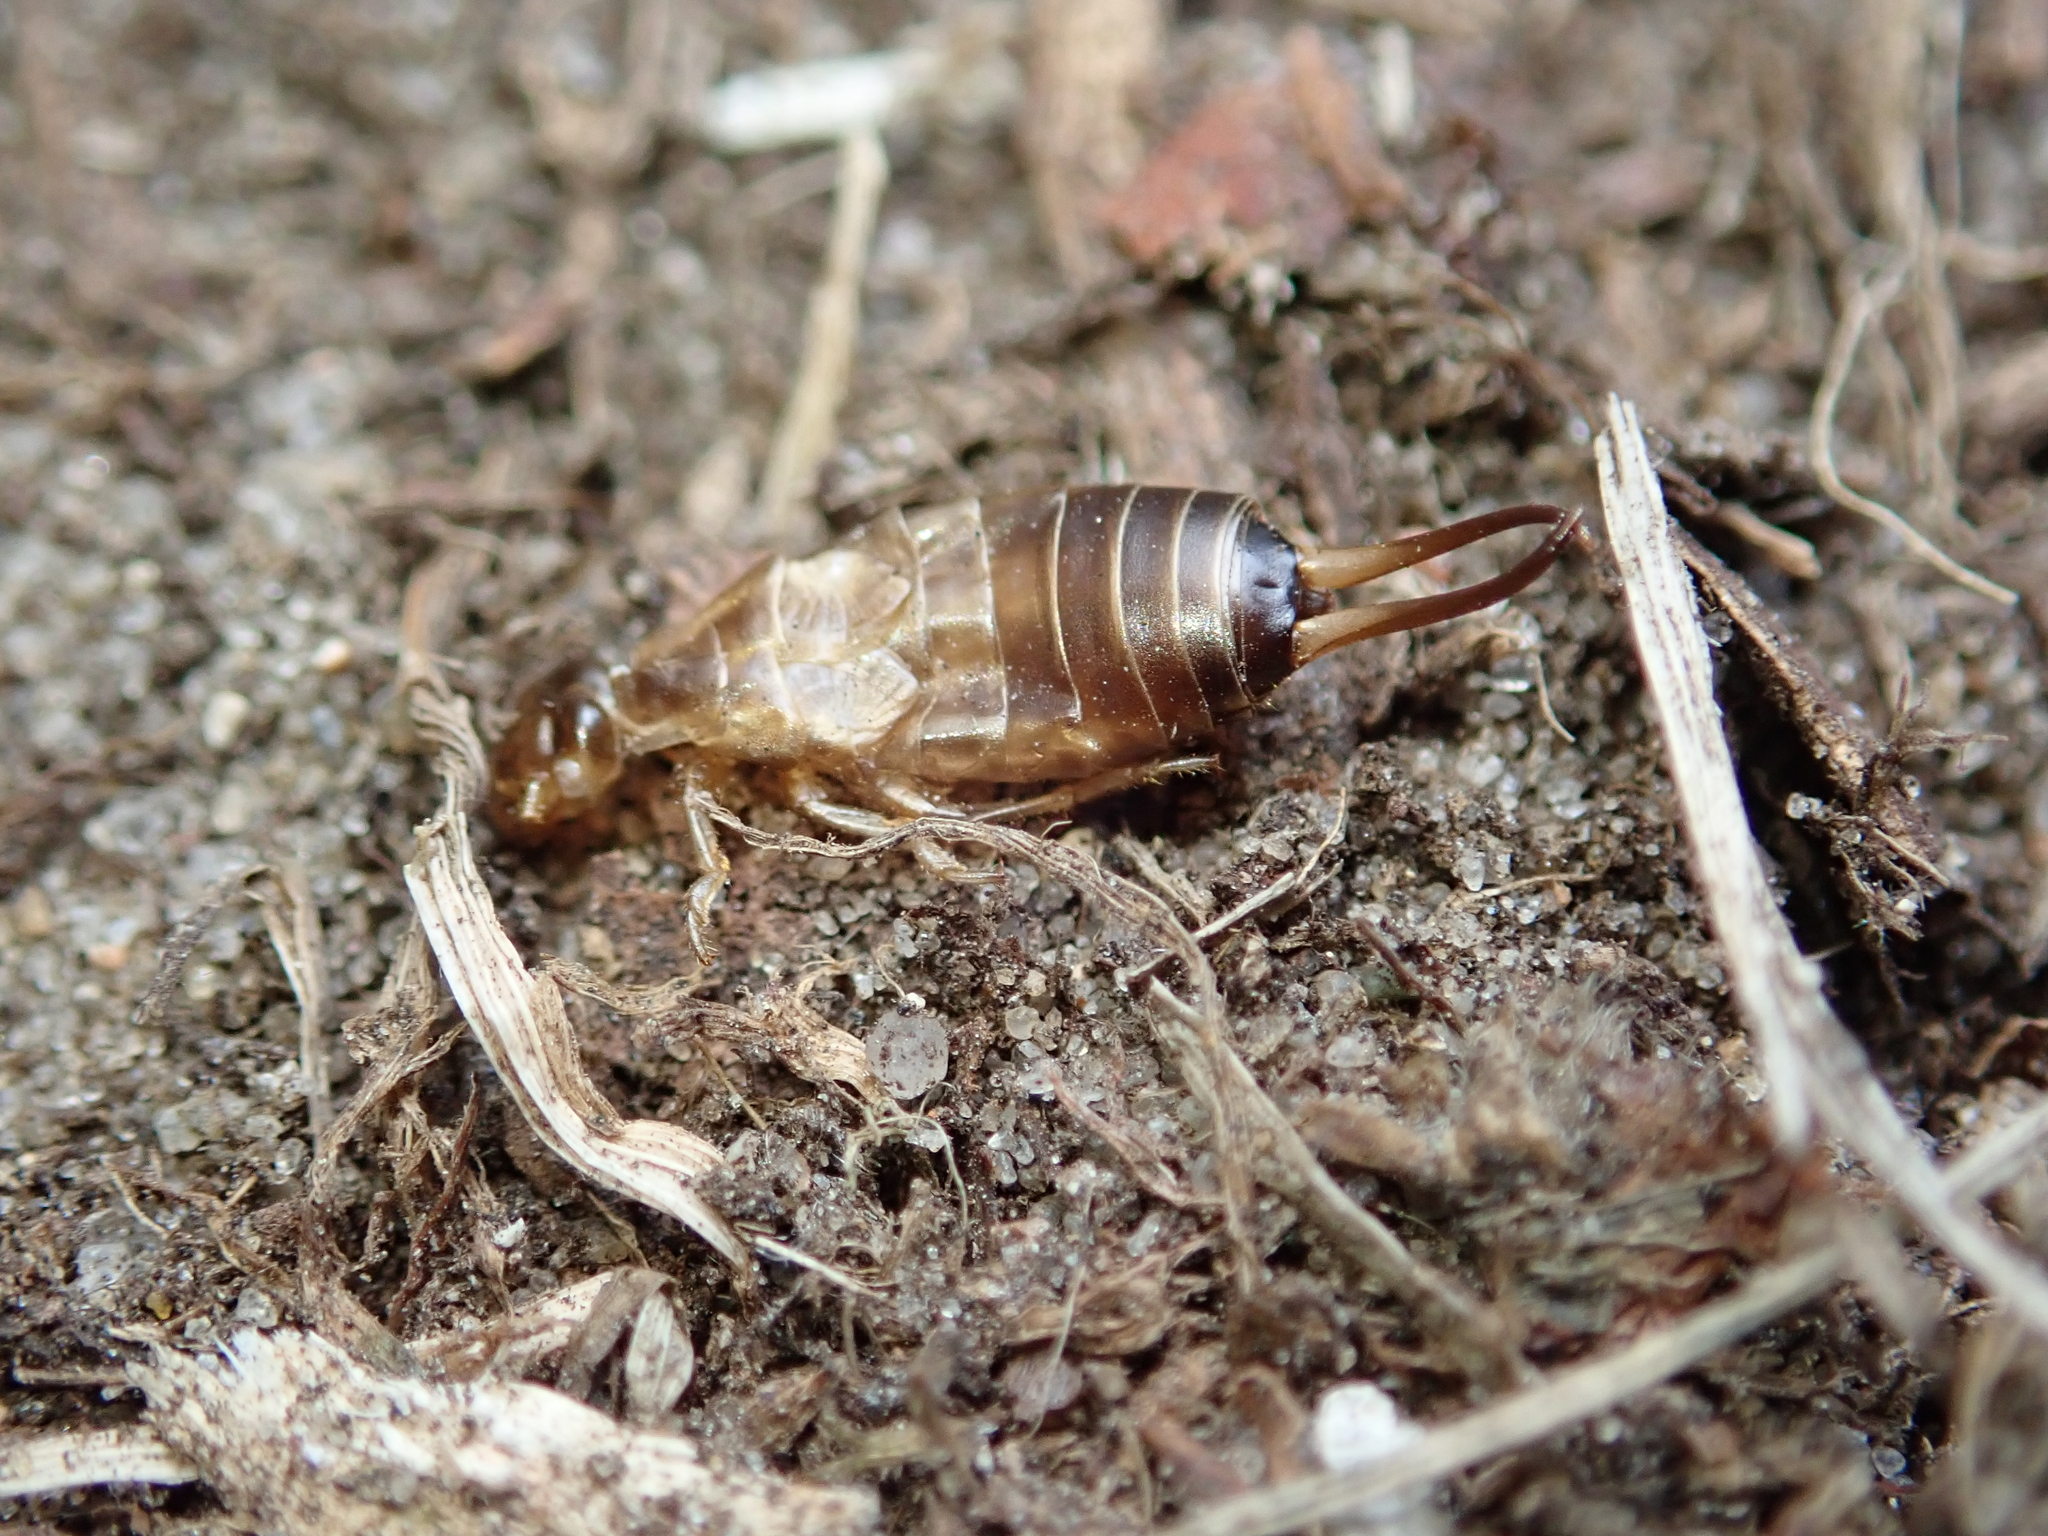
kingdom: Animalia
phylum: Arthropoda
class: Insecta
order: Dermaptera
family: Forficulidae
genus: Forficula
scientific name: Forficula
